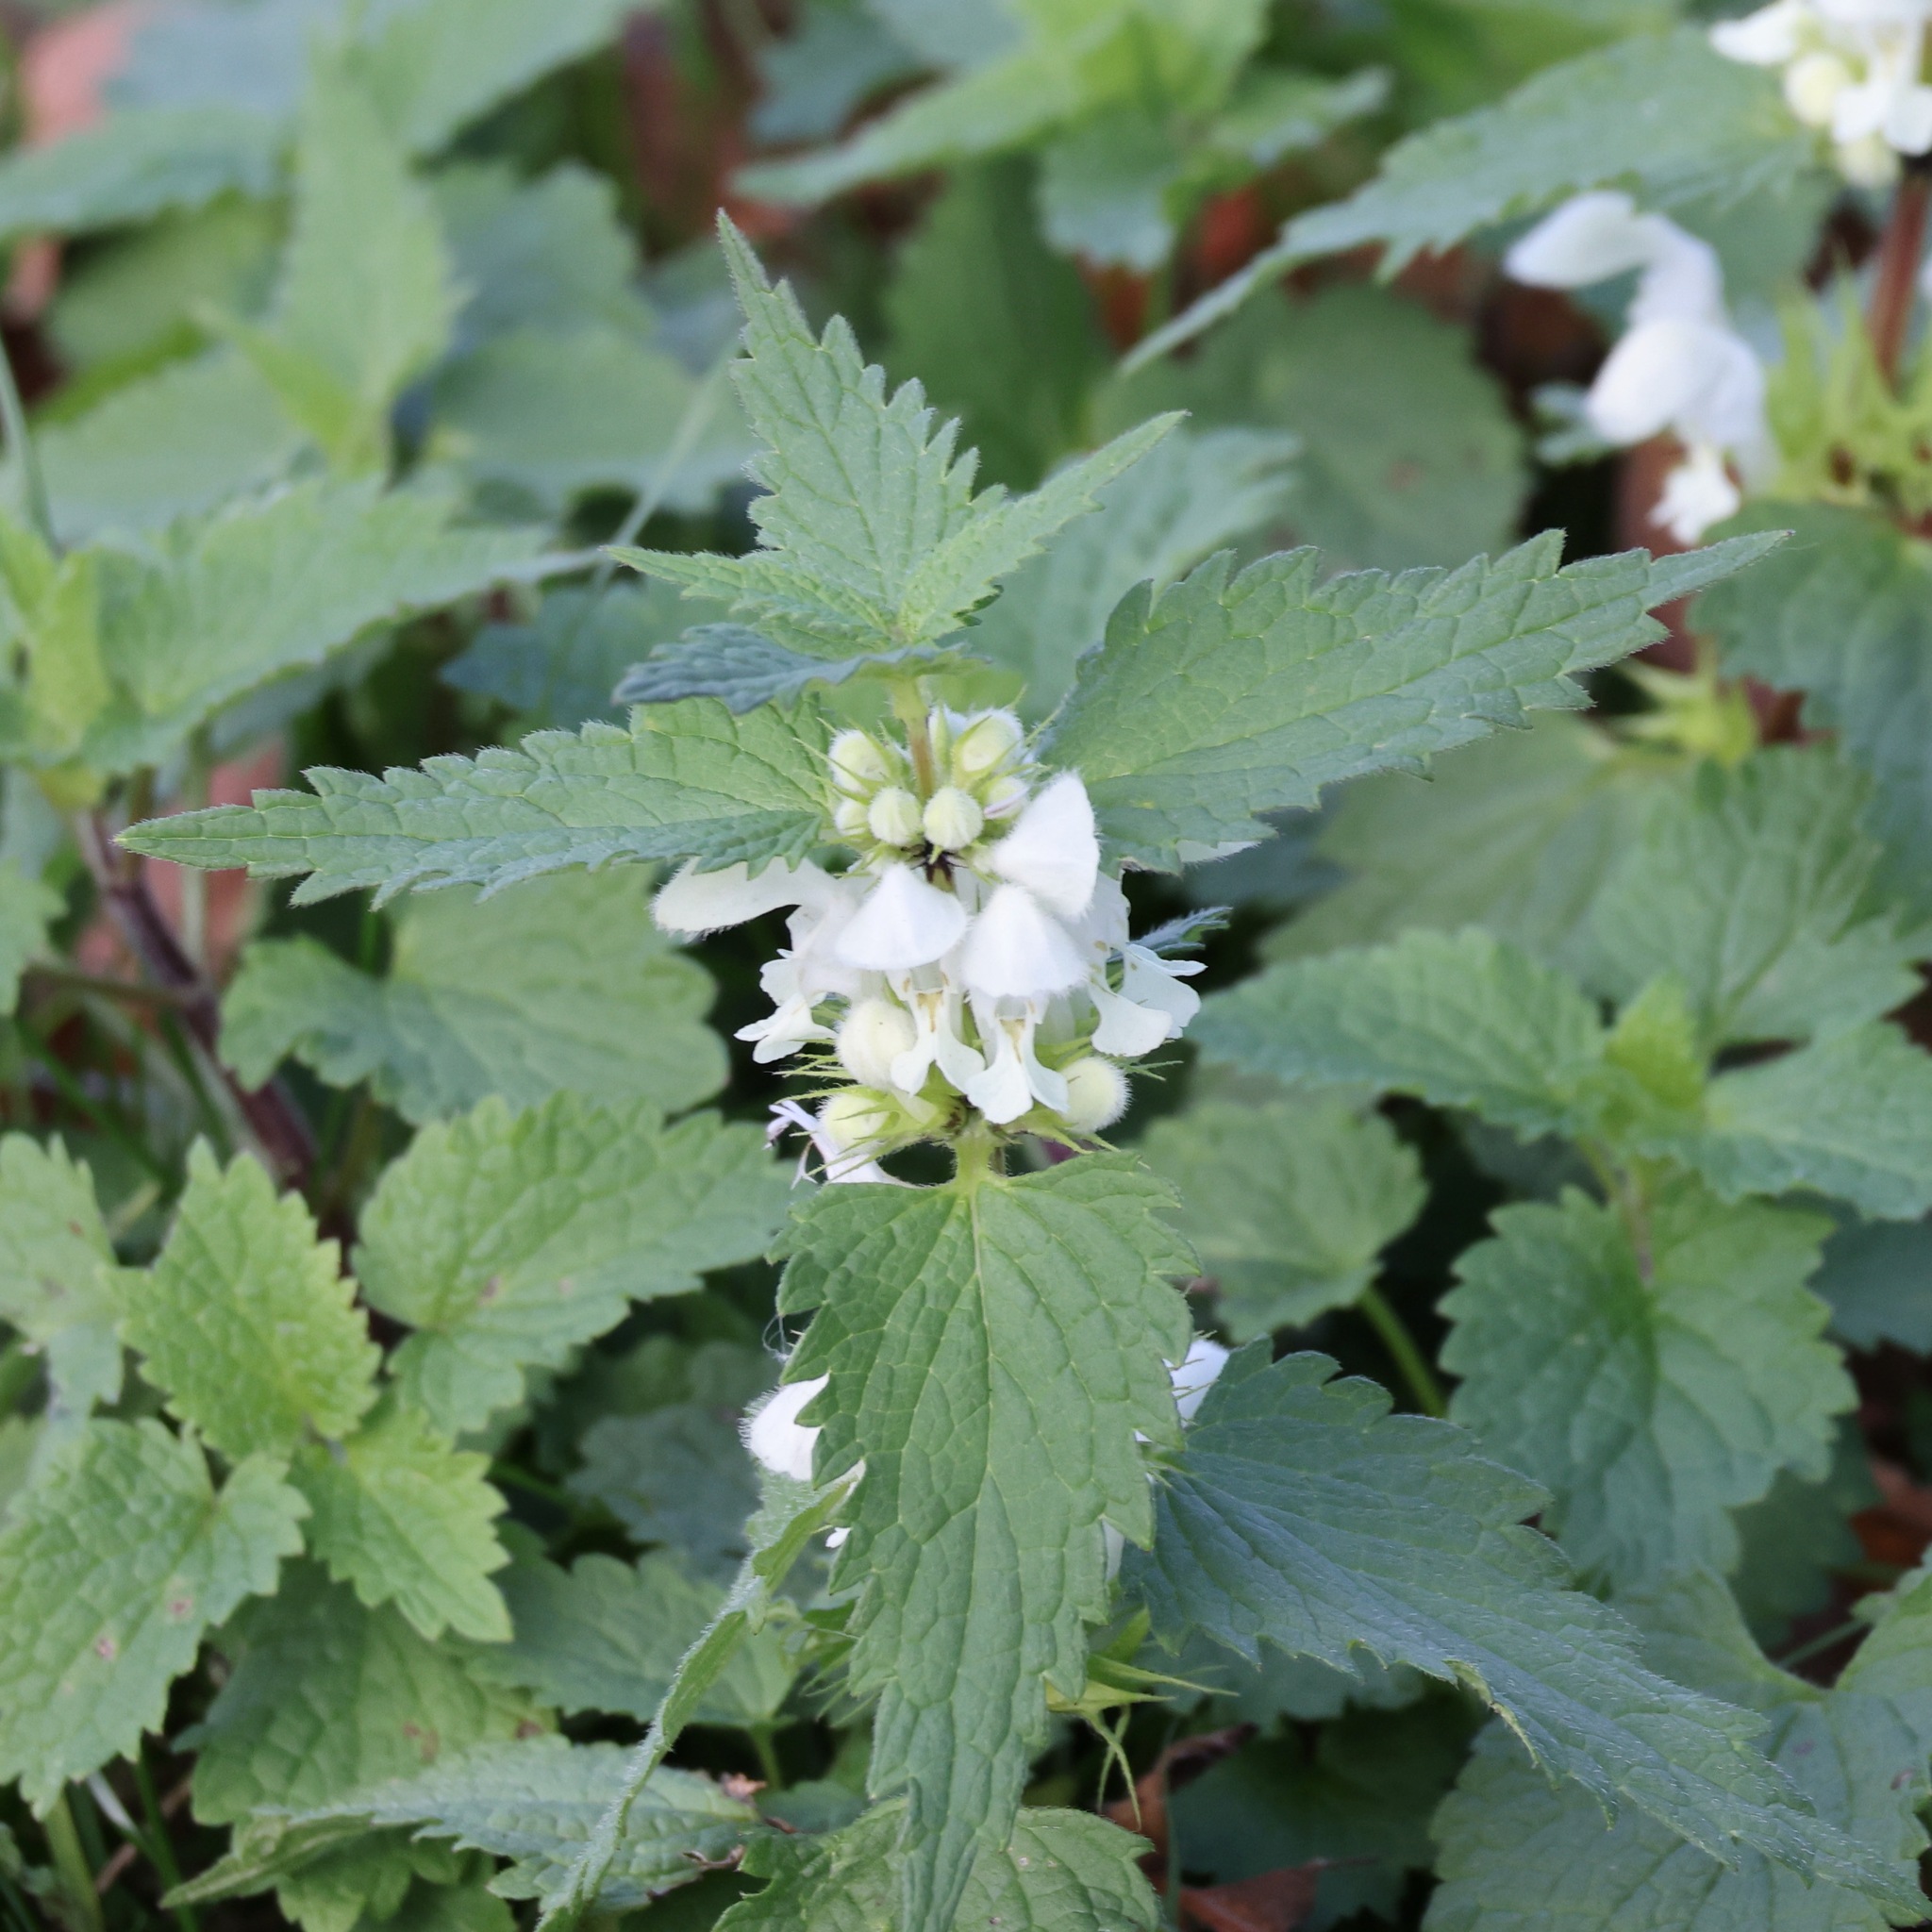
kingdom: Plantae
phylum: Tracheophyta
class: Magnoliopsida
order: Lamiales
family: Lamiaceae
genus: Lamium
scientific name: Lamium album
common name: White dead-nettle
